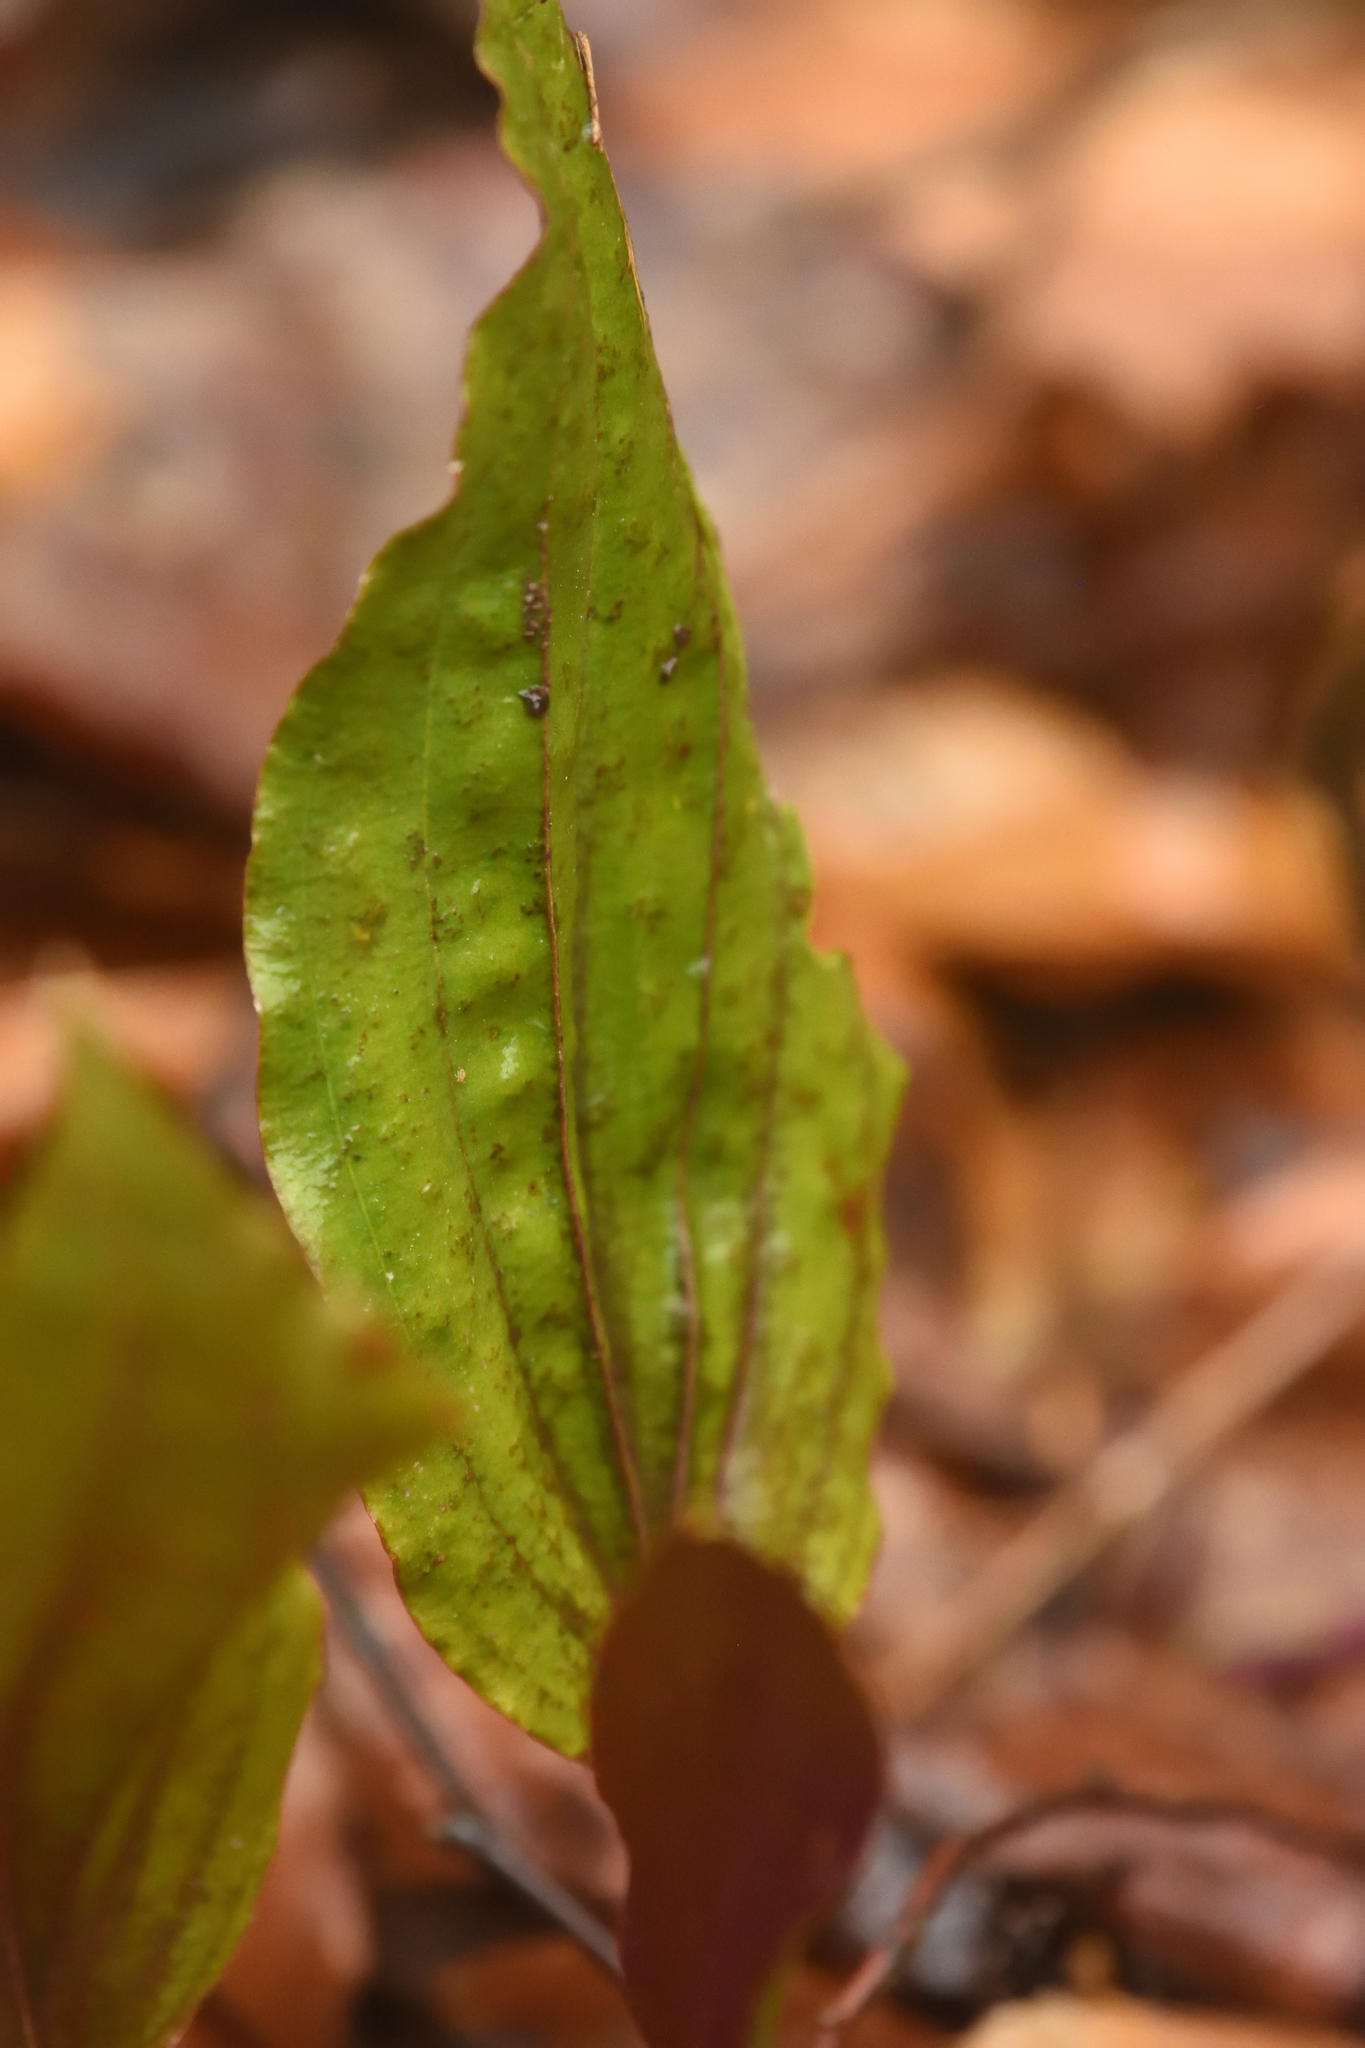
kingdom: Plantae
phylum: Tracheophyta
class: Liliopsida
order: Asparagales
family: Orchidaceae
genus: Tipularia
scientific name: Tipularia discolor
